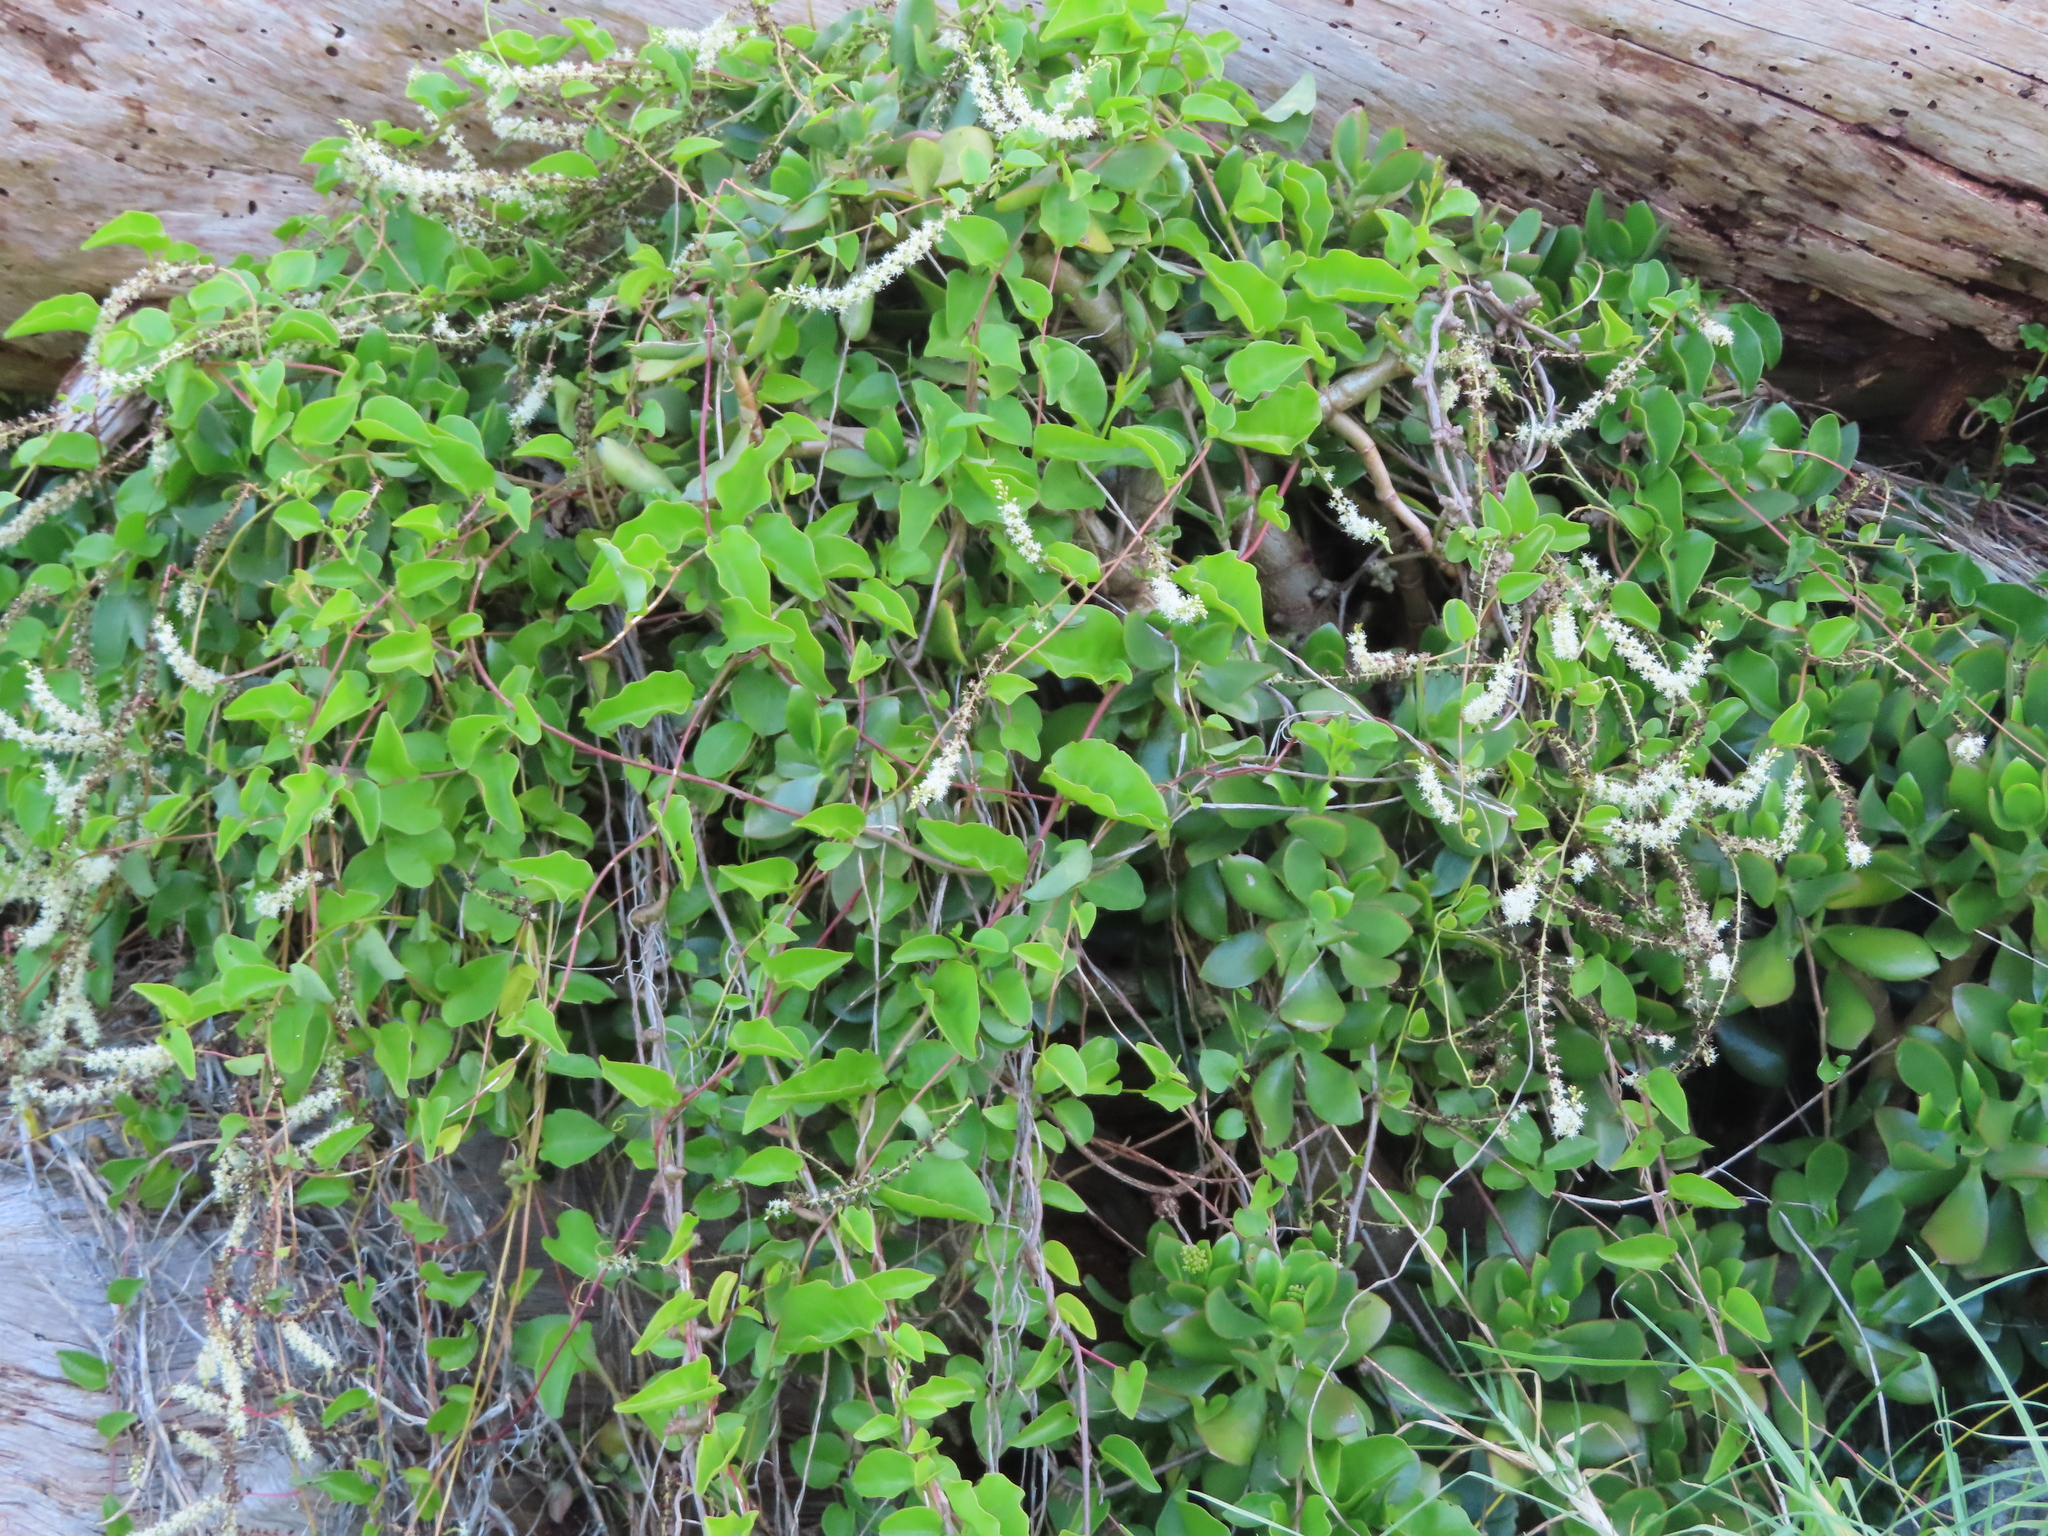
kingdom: Plantae
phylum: Tracheophyta
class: Magnoliopsida
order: Caryophyllales
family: Basellaceae
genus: Anredera
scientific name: Anredera cordifolia
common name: Heartleaf madeiravine
